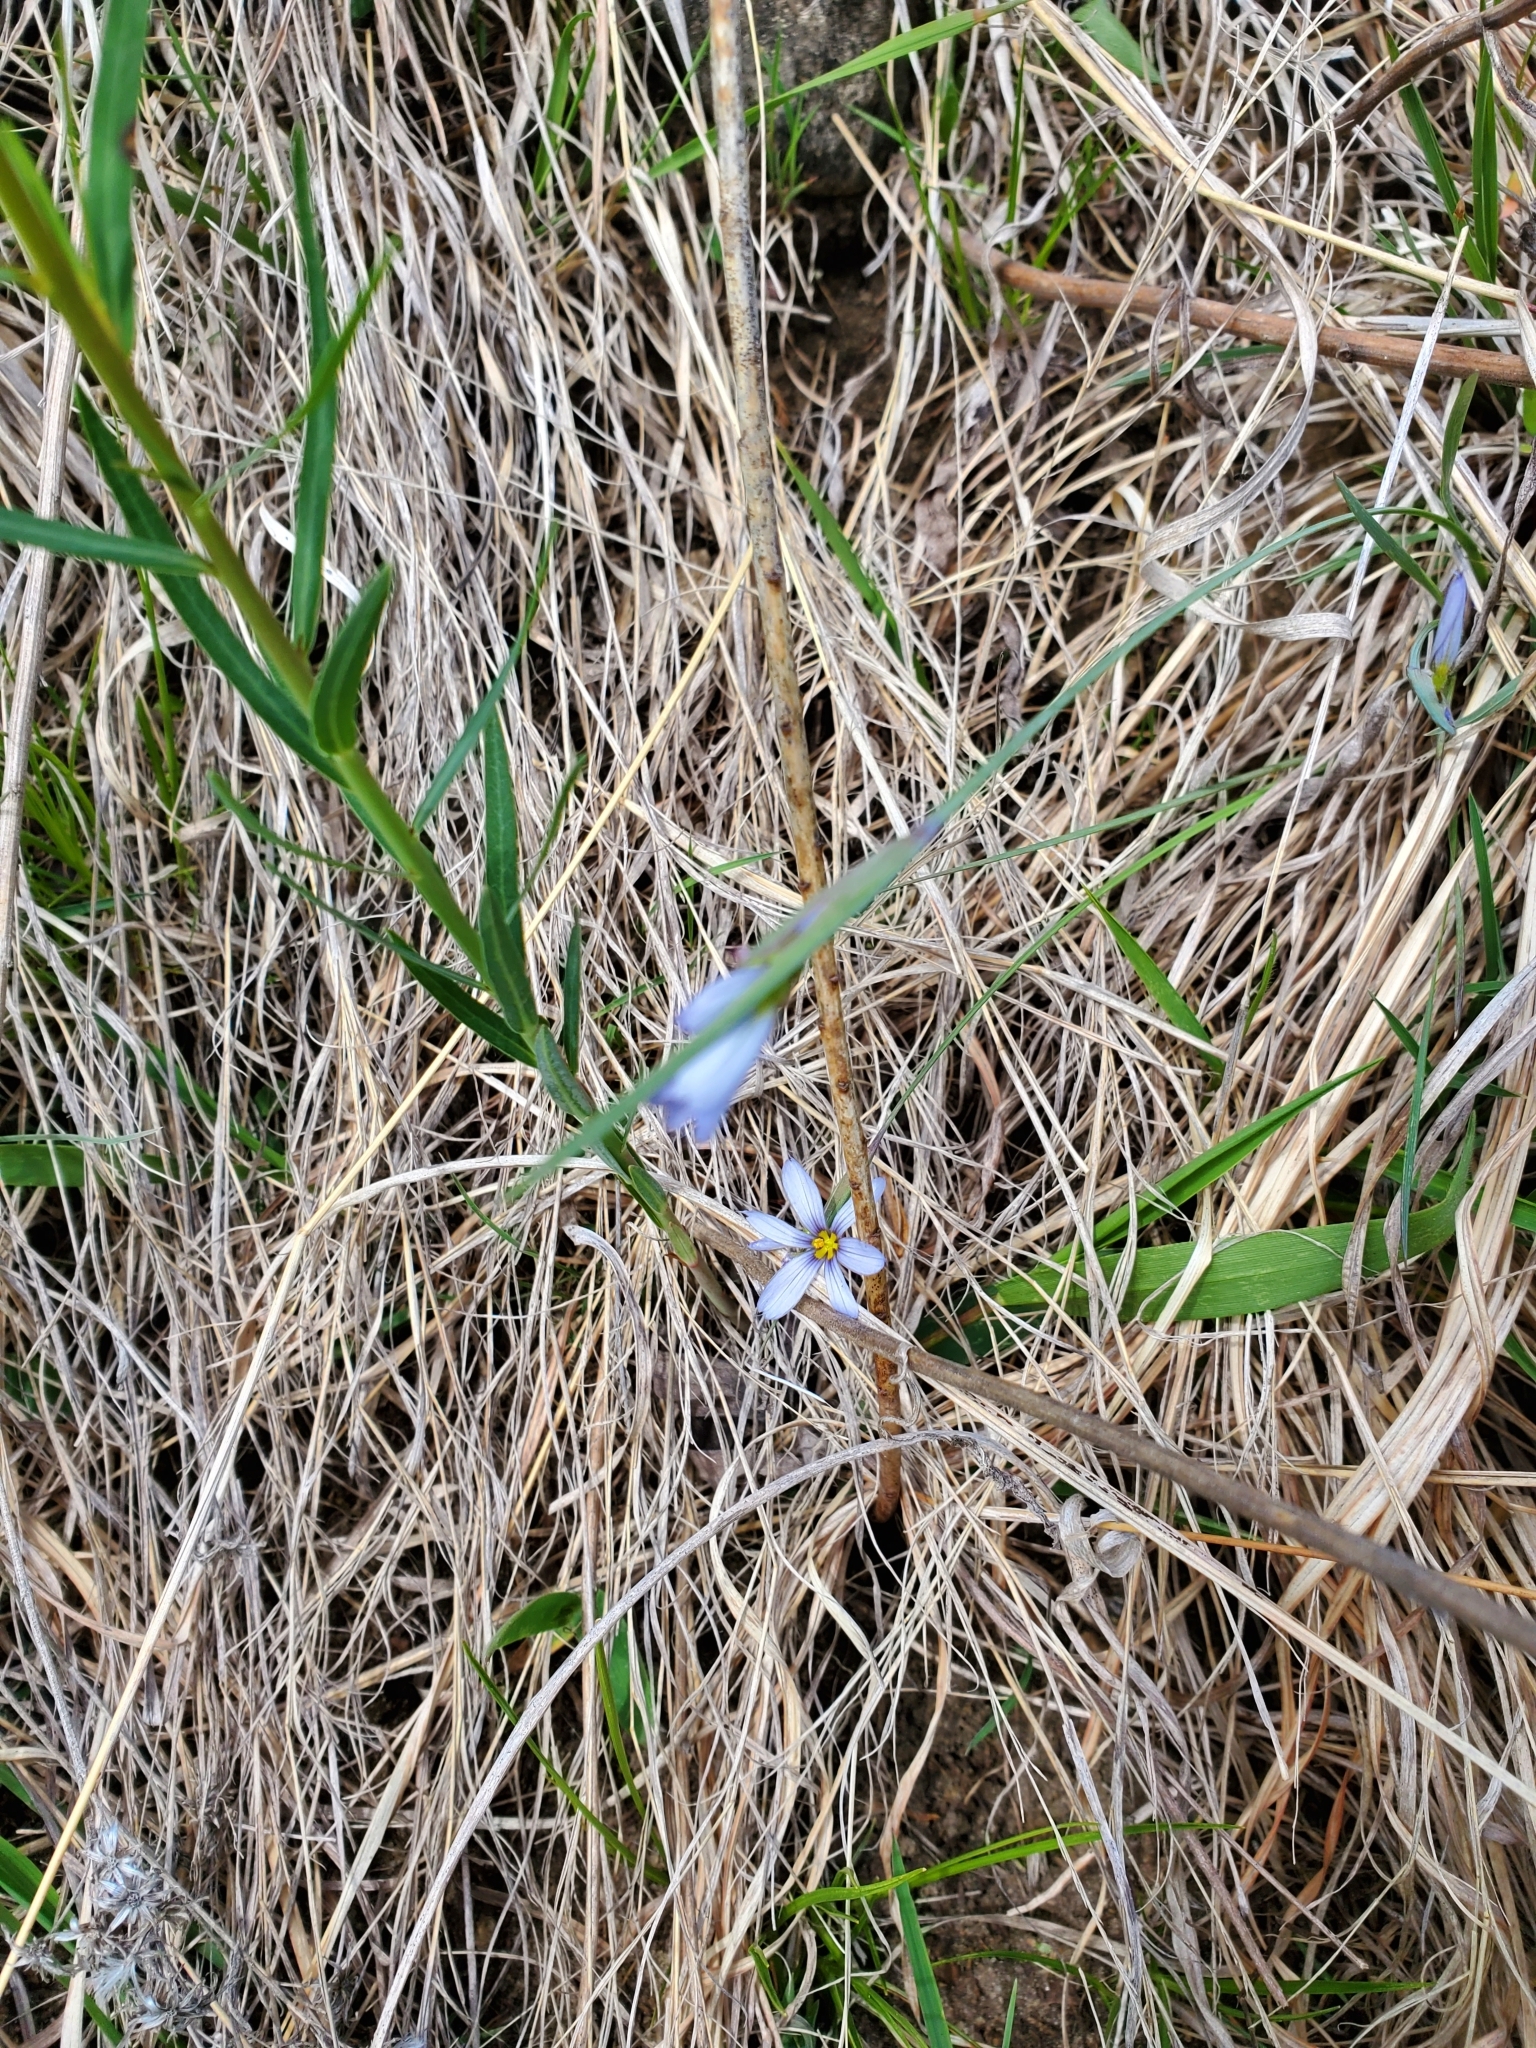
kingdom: Plantae
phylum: Tracheophyta
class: Liliopsida
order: Asparagales
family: Iridaceae
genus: Sisyrinchium
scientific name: Sisyrinchium campestre
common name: Prairie blue-eyed-grass
